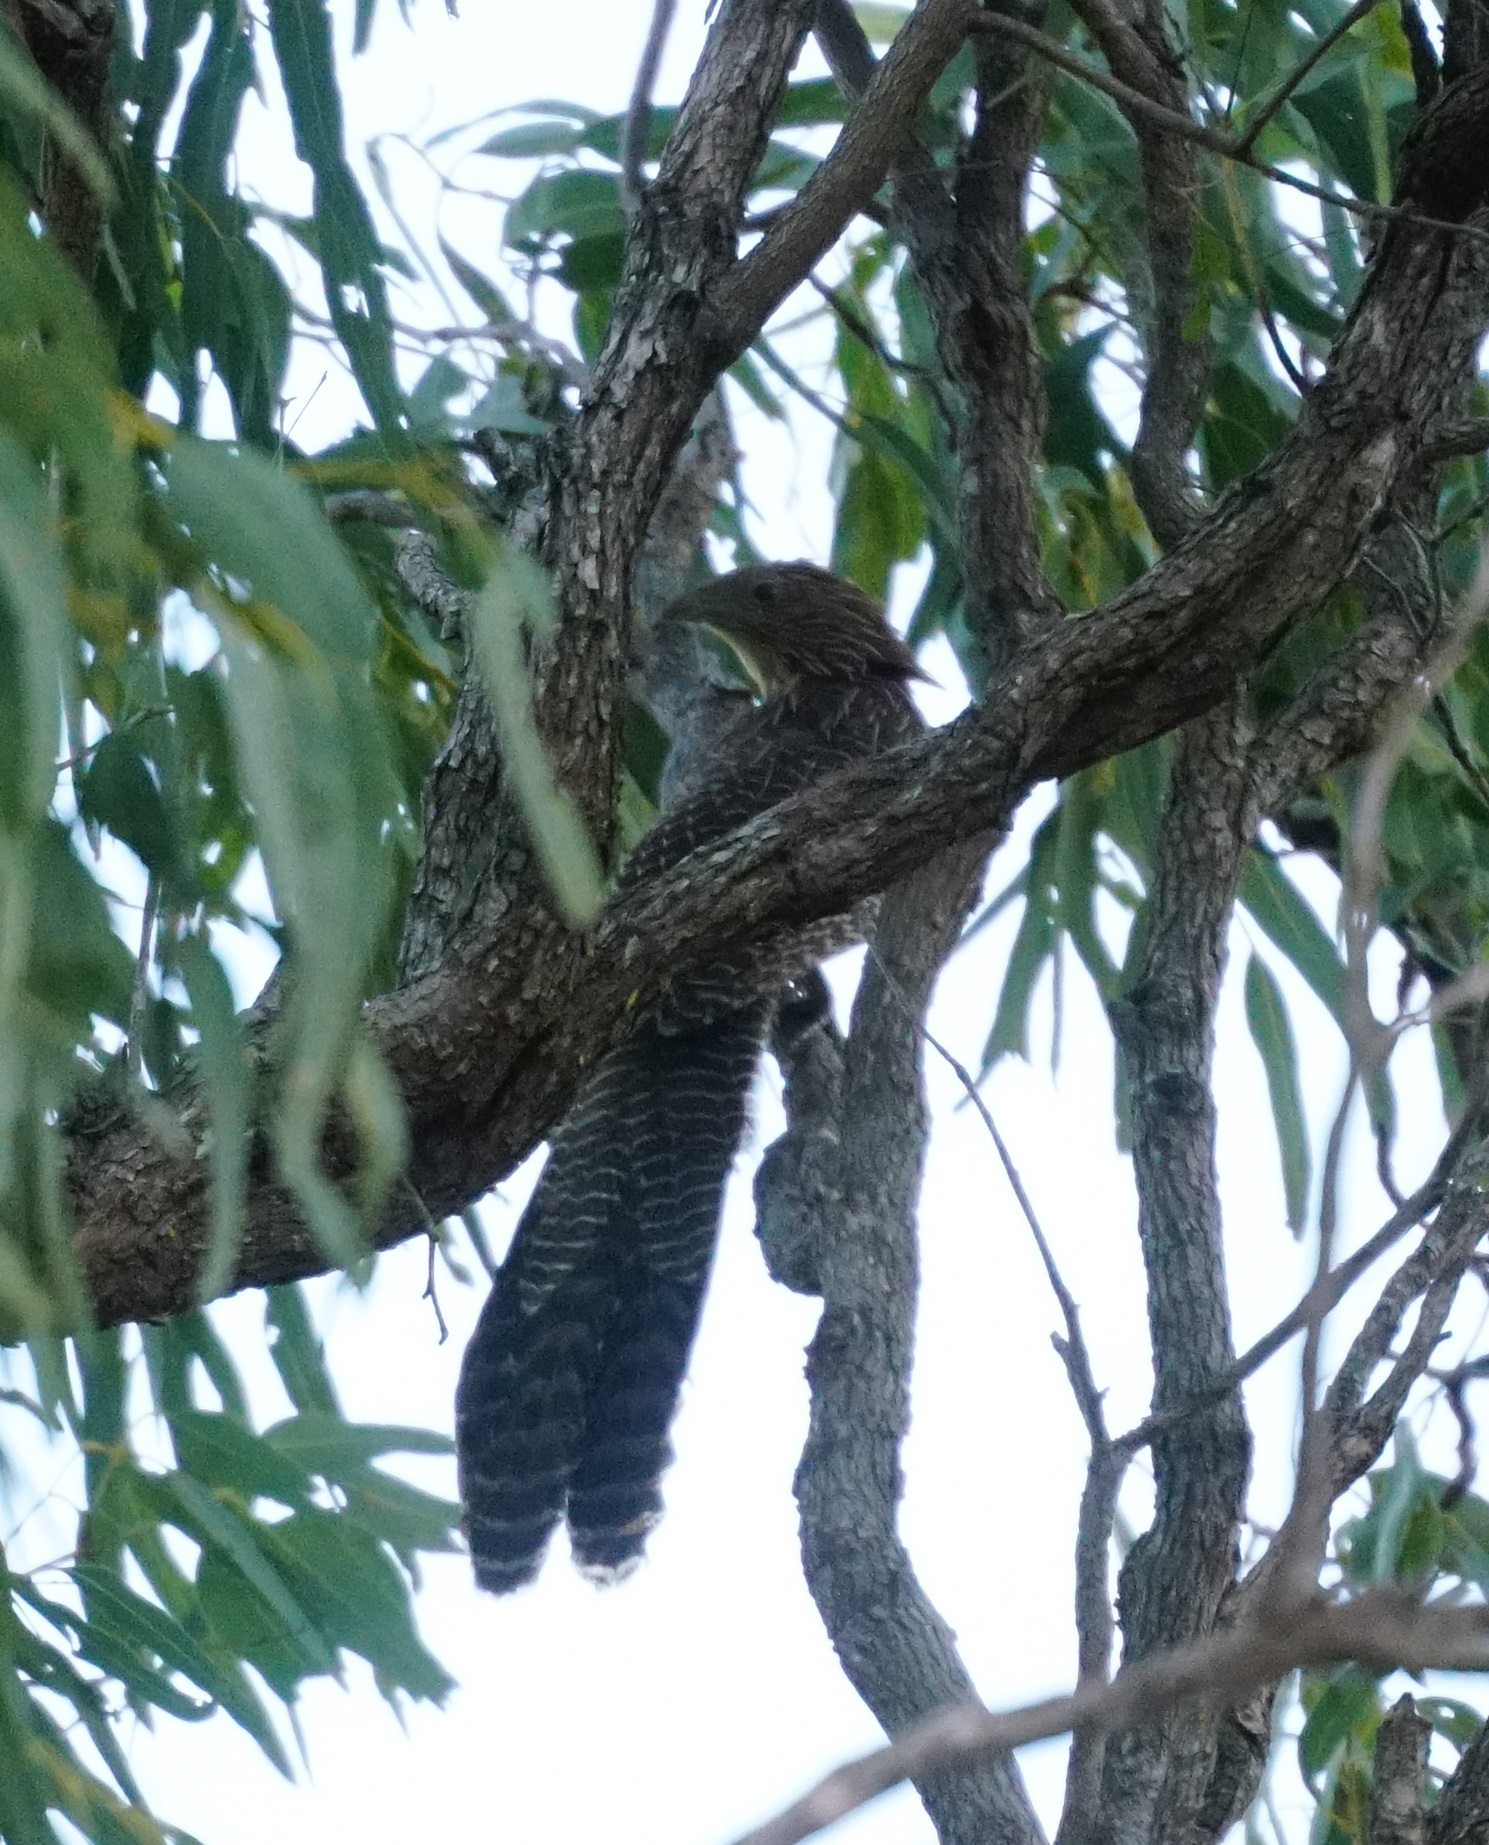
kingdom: Animalia
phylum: Chordata
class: Aves
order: Cuculiformes
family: Cuculidae
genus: Centropus
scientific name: Centropus phasianinus
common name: Pheasant coucal
